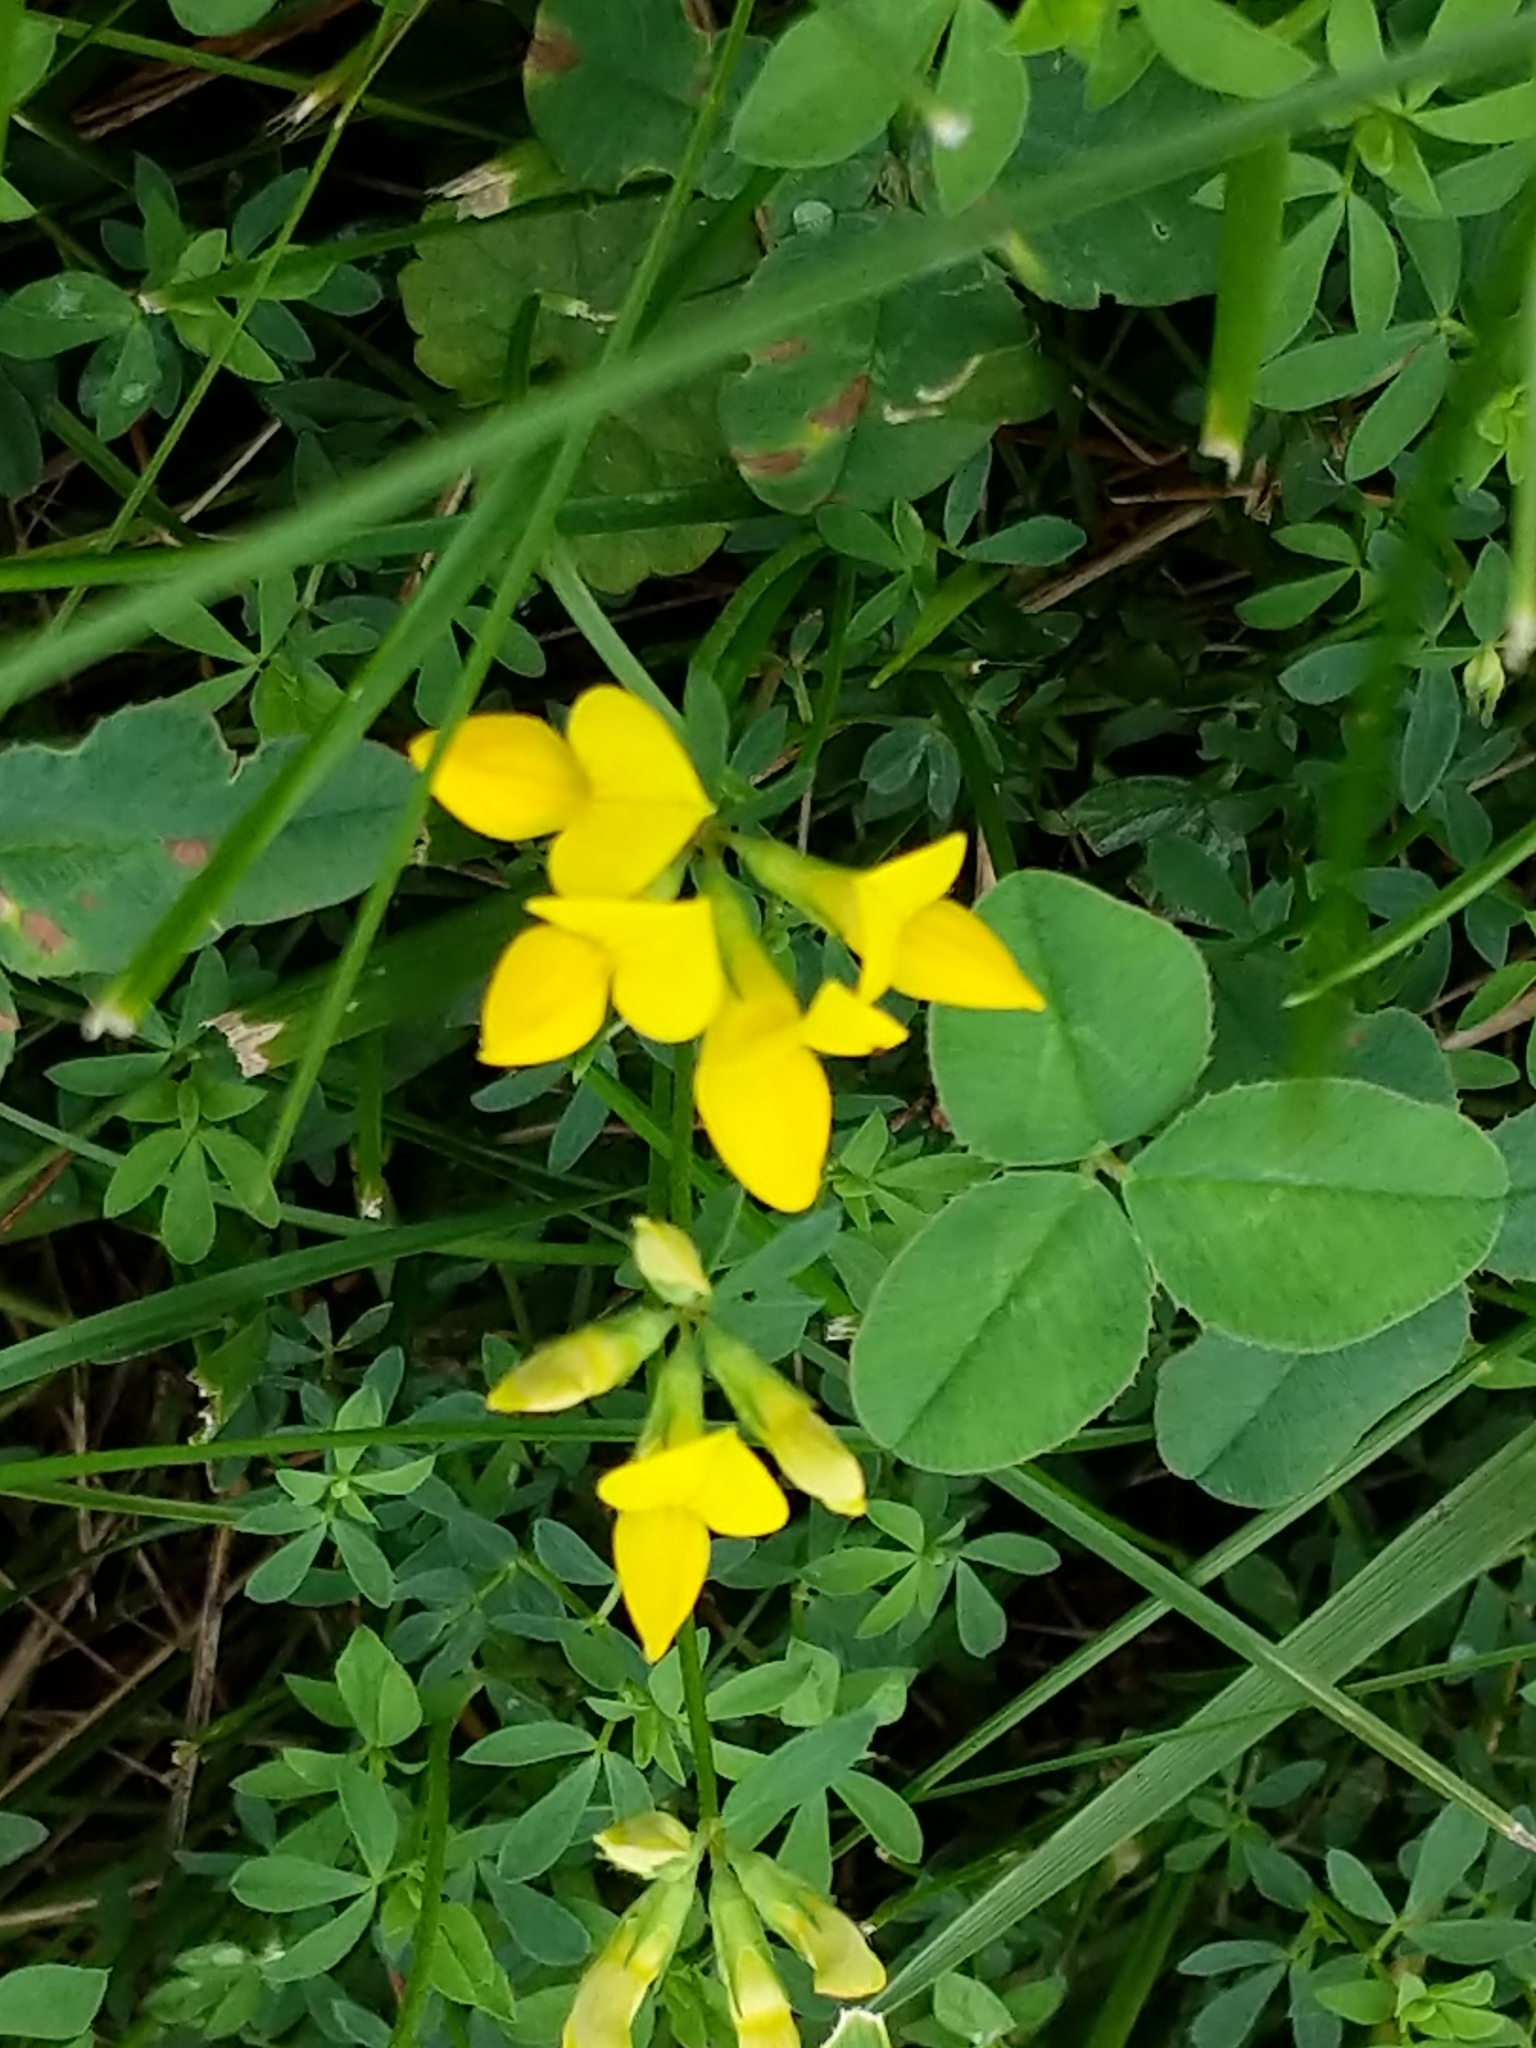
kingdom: Plantae
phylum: Tracheophyta
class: Magnoliopsida
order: Fabales
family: Fabaceae
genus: Lotus
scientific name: Lotus corniculatus
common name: Common bird's-foot-trefoil
